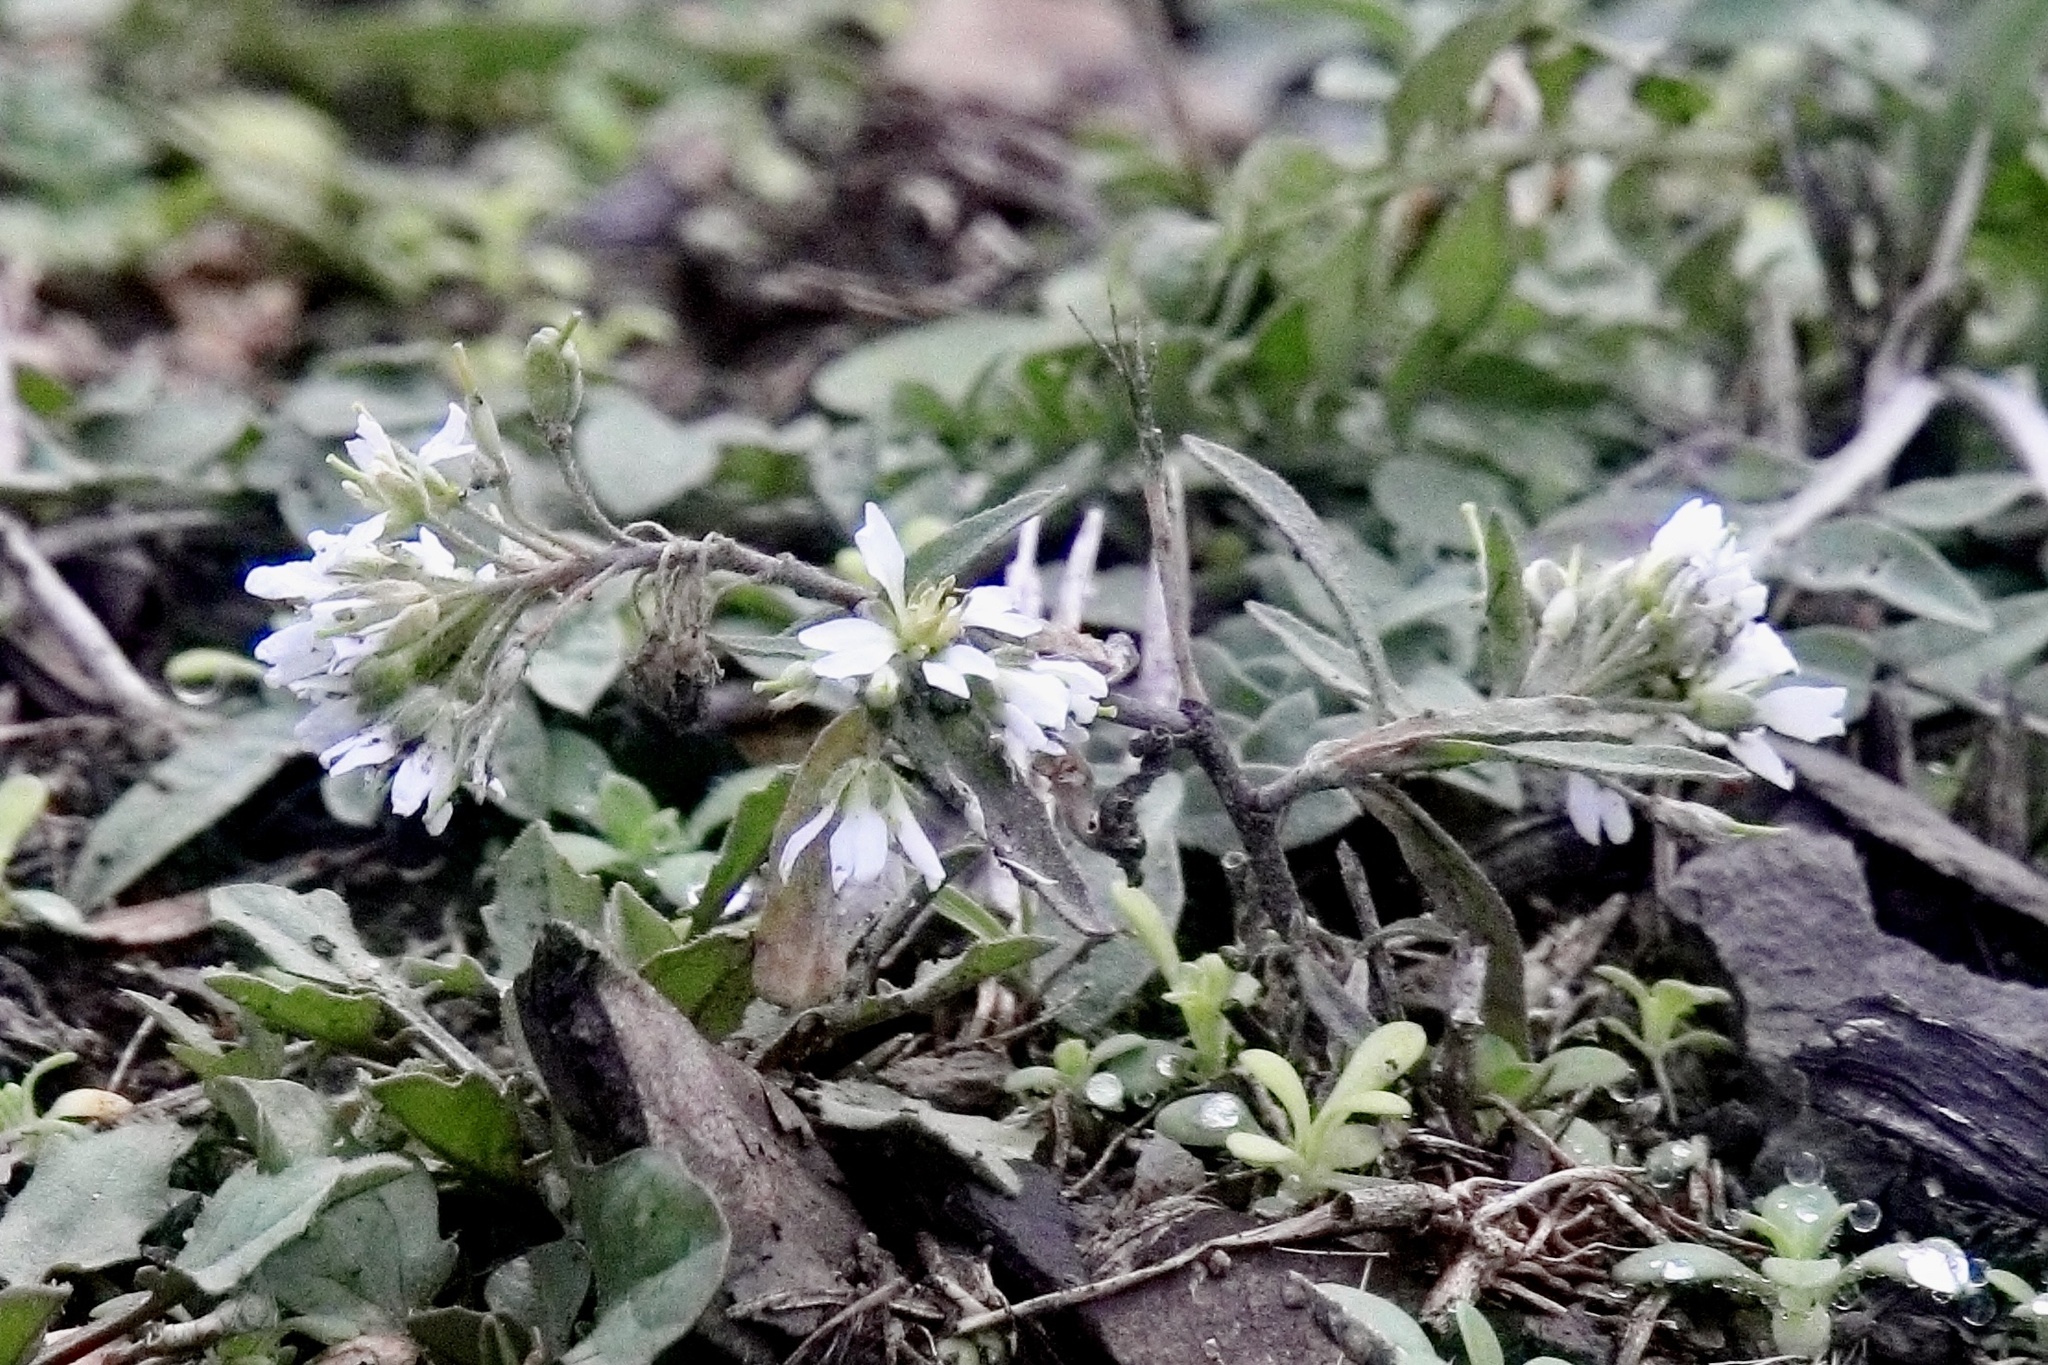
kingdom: Plantae
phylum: Tracheophyta
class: Magnoliopsida
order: Brassicales
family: Brassicaceae
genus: Berteroa
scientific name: Berteroa incana
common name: Hoary alison
